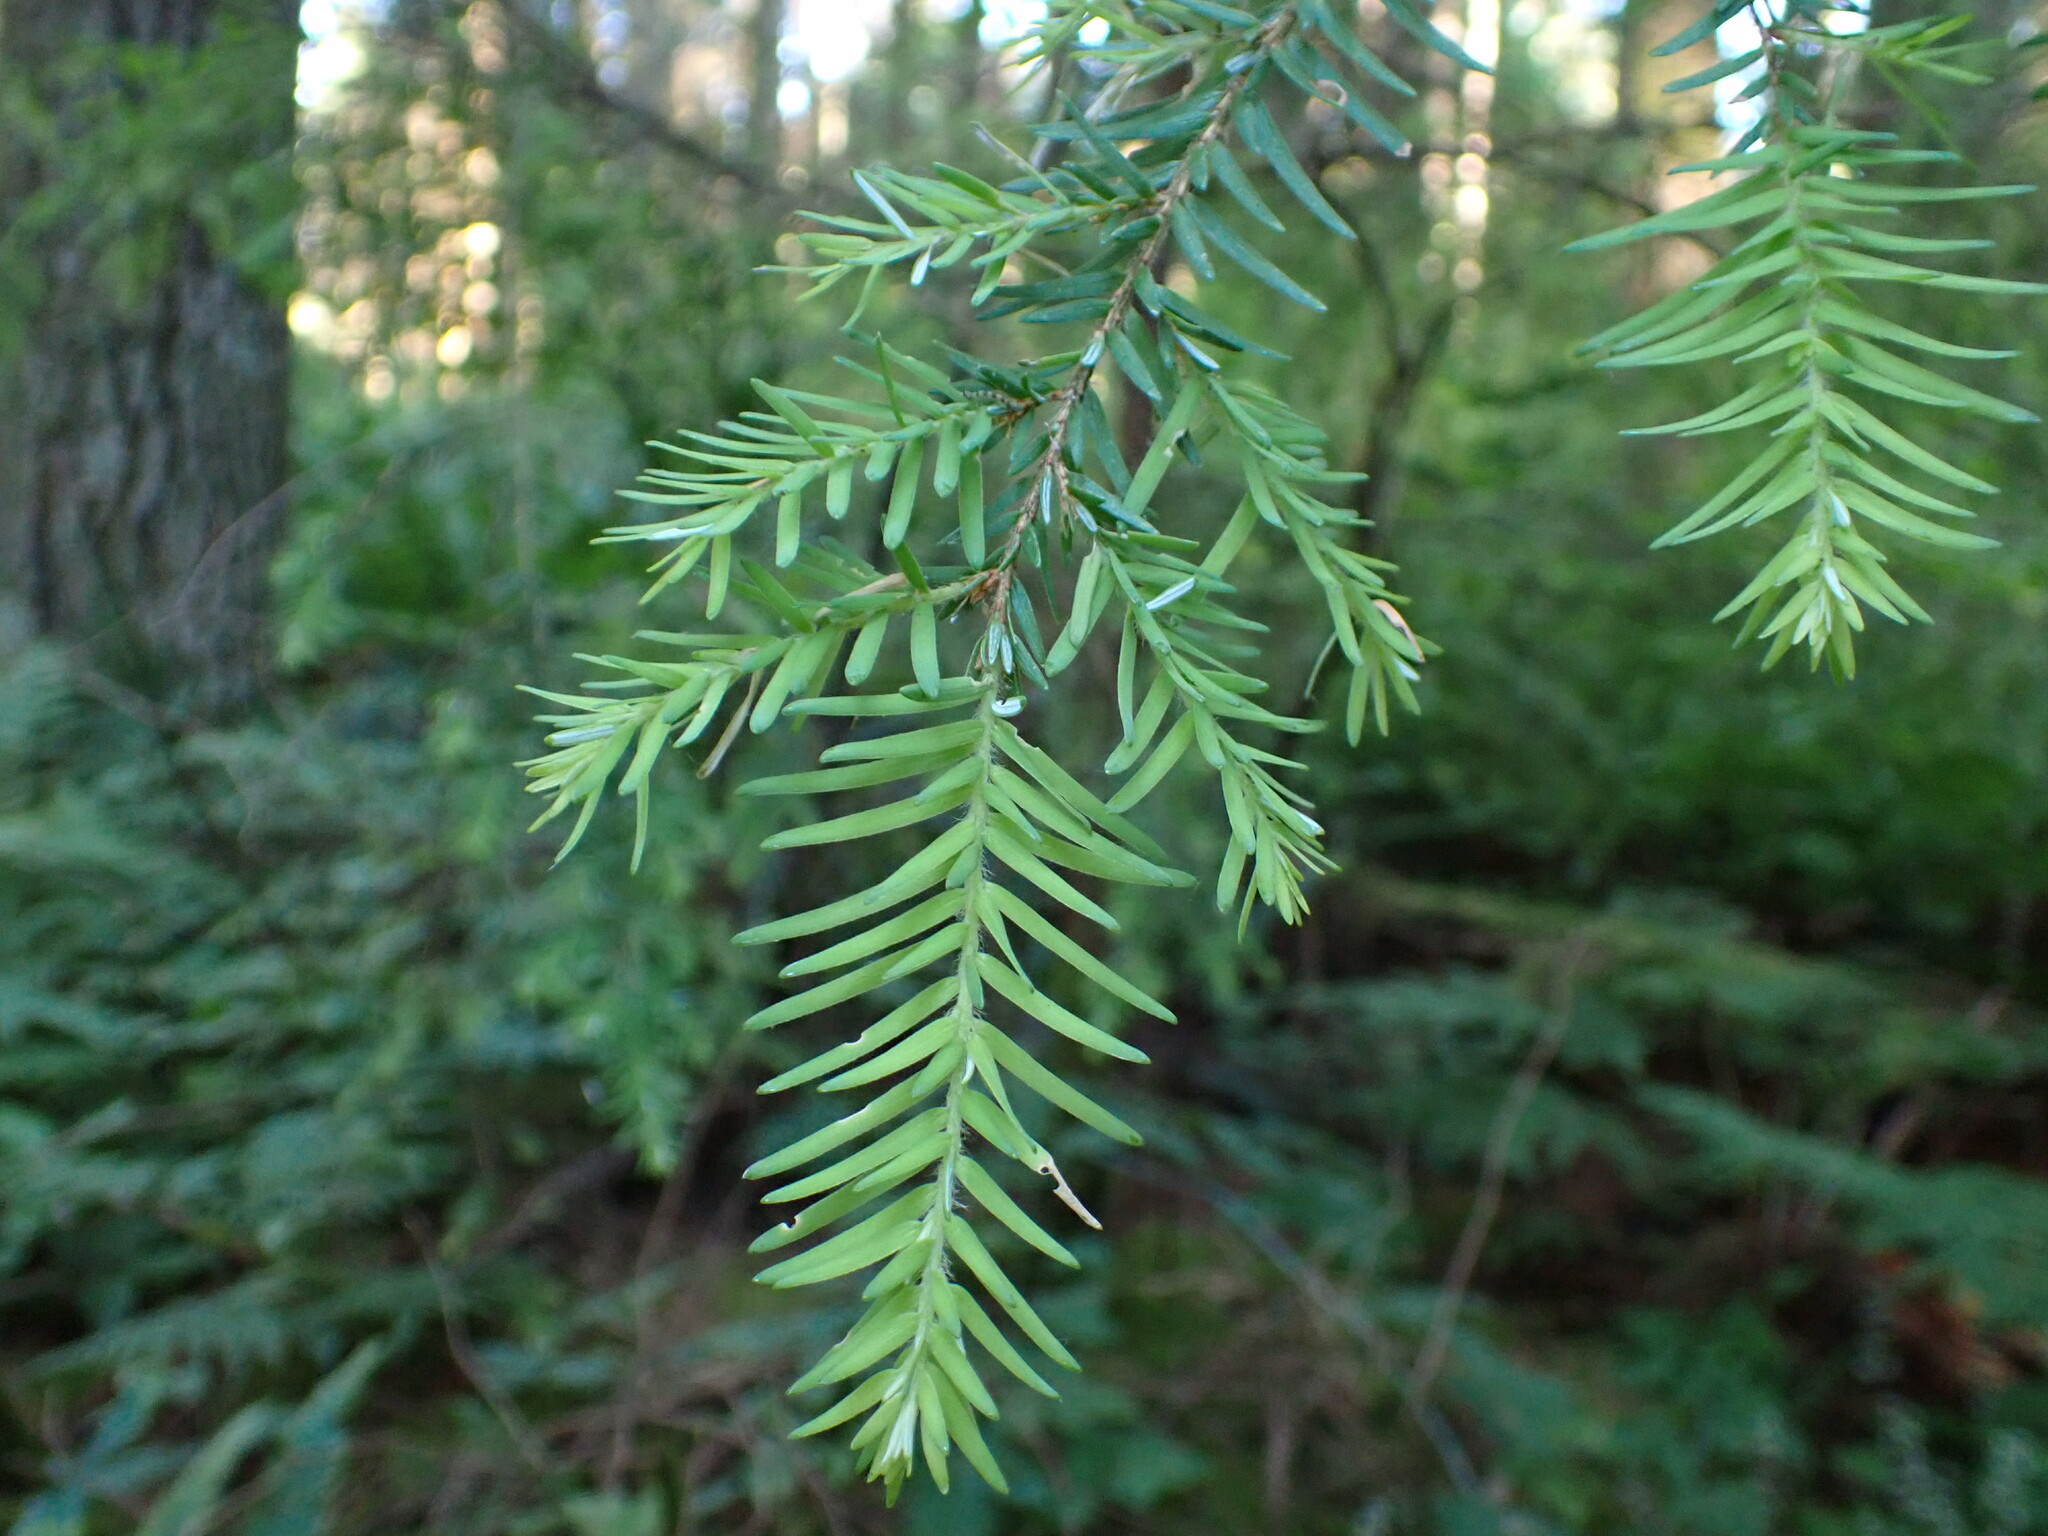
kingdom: Plantae
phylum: Tracheophyta
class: Pinopsida
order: Pinales
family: Pinaceae
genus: Tsuga
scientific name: Tsuga heterophylla
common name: Western hemlock
